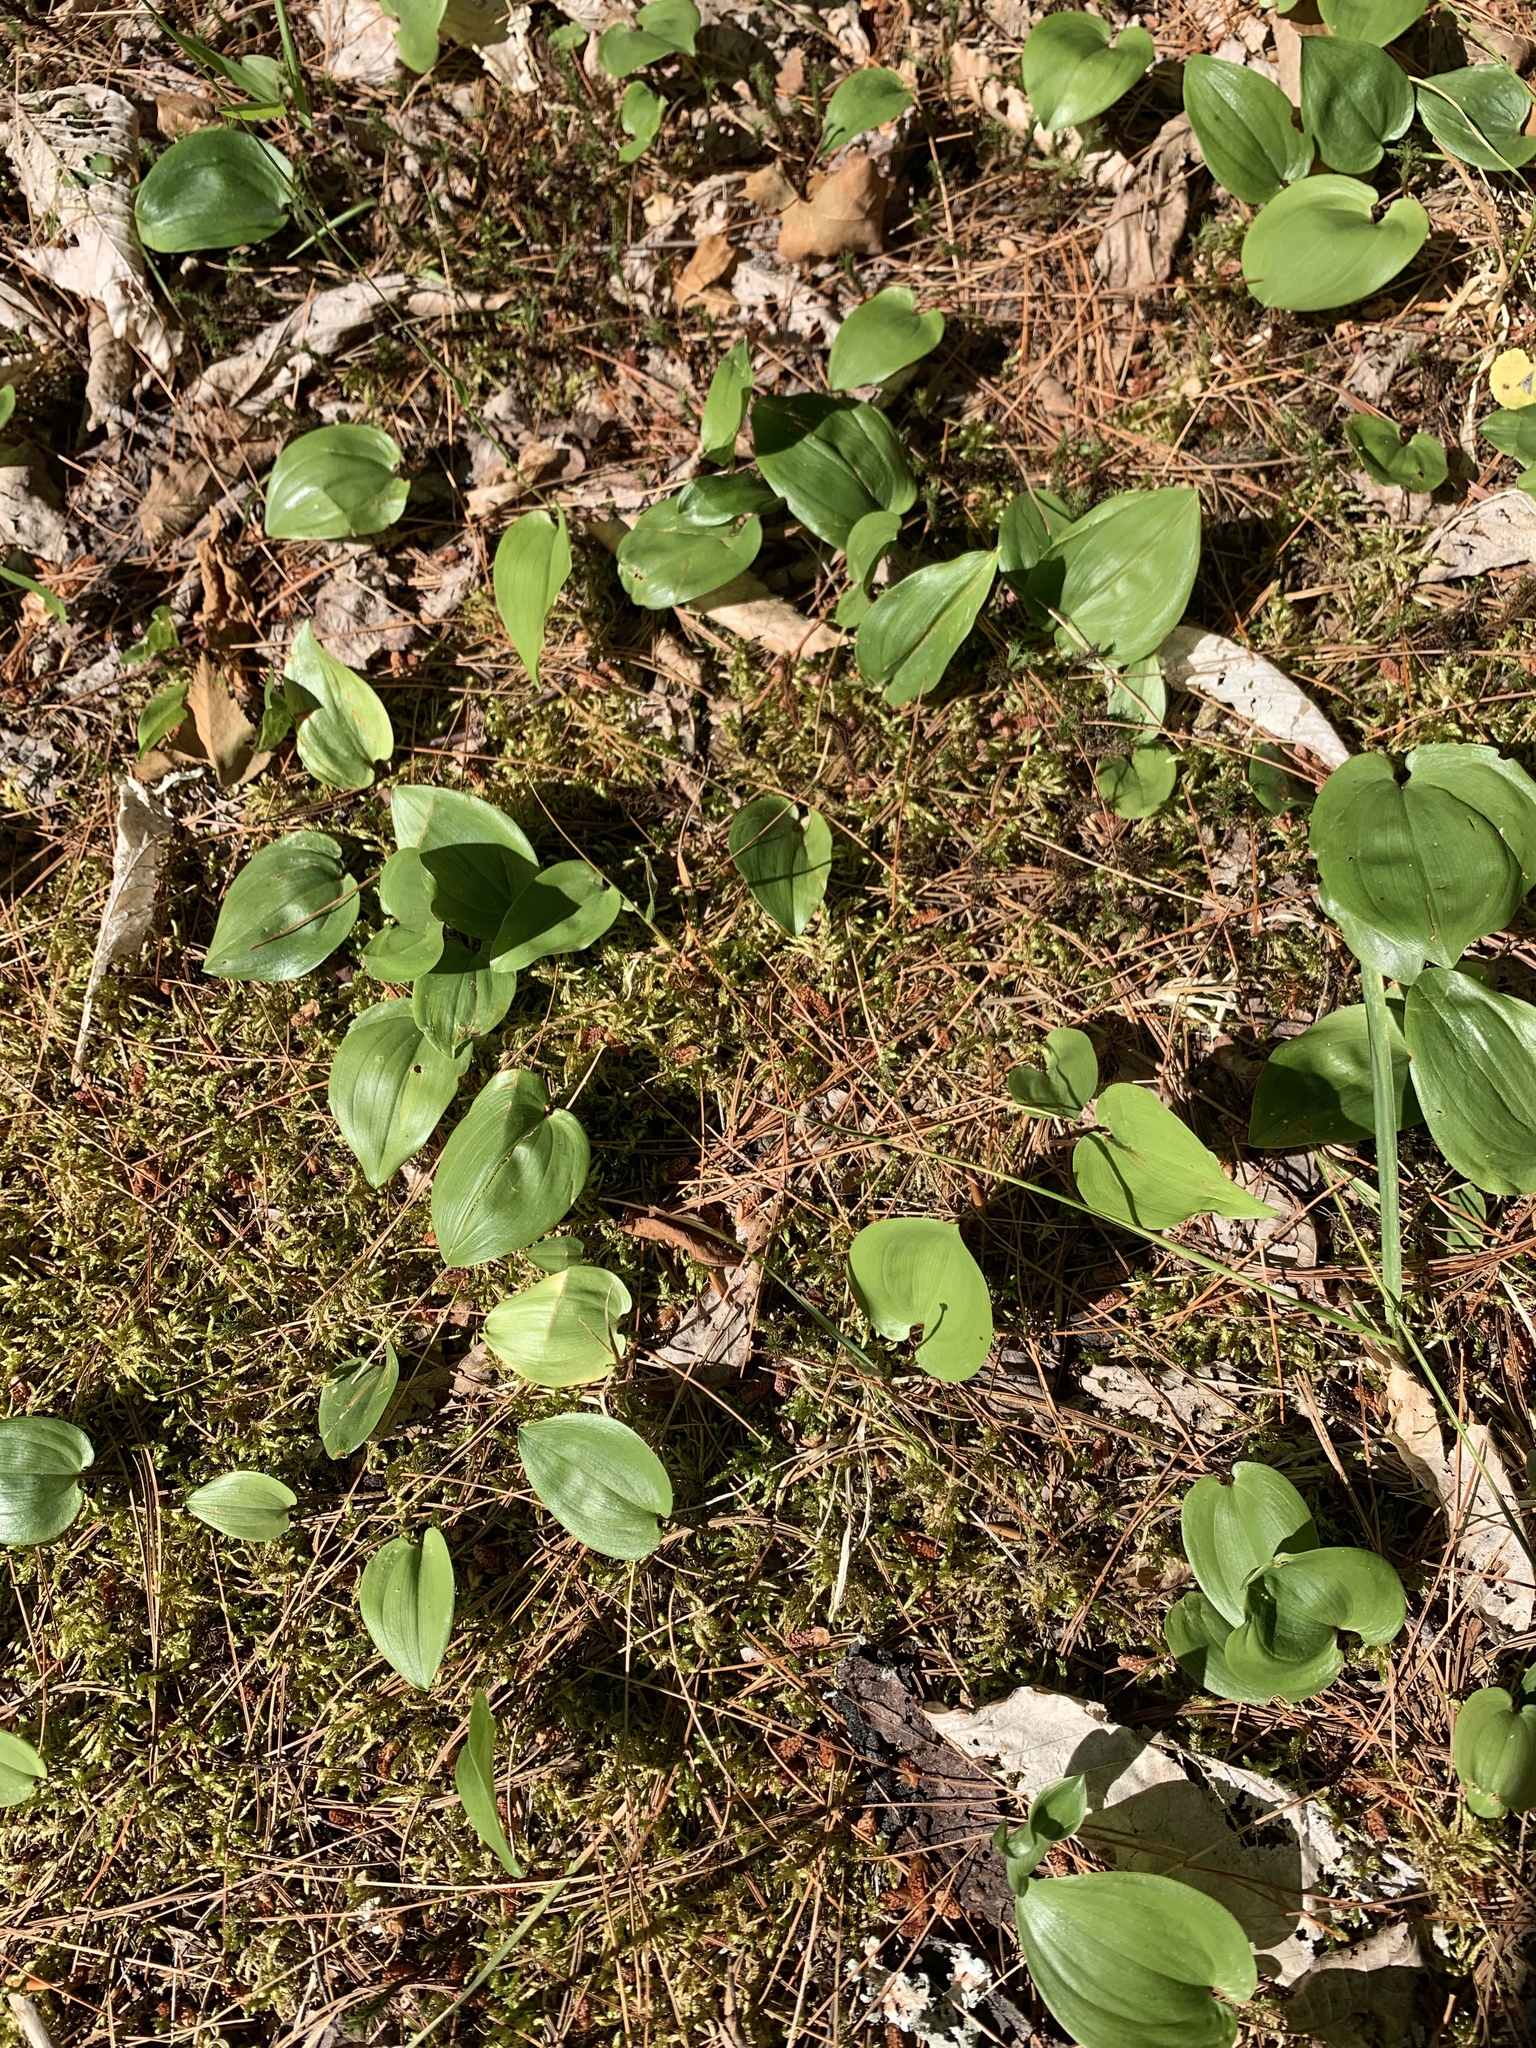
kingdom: Plantae
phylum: Tracheophyta
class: Liliopsida
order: Asparagales
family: Asparagaceae
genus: Maianthemum
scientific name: Maianthemum canadense
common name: False lily-of-the-valley
